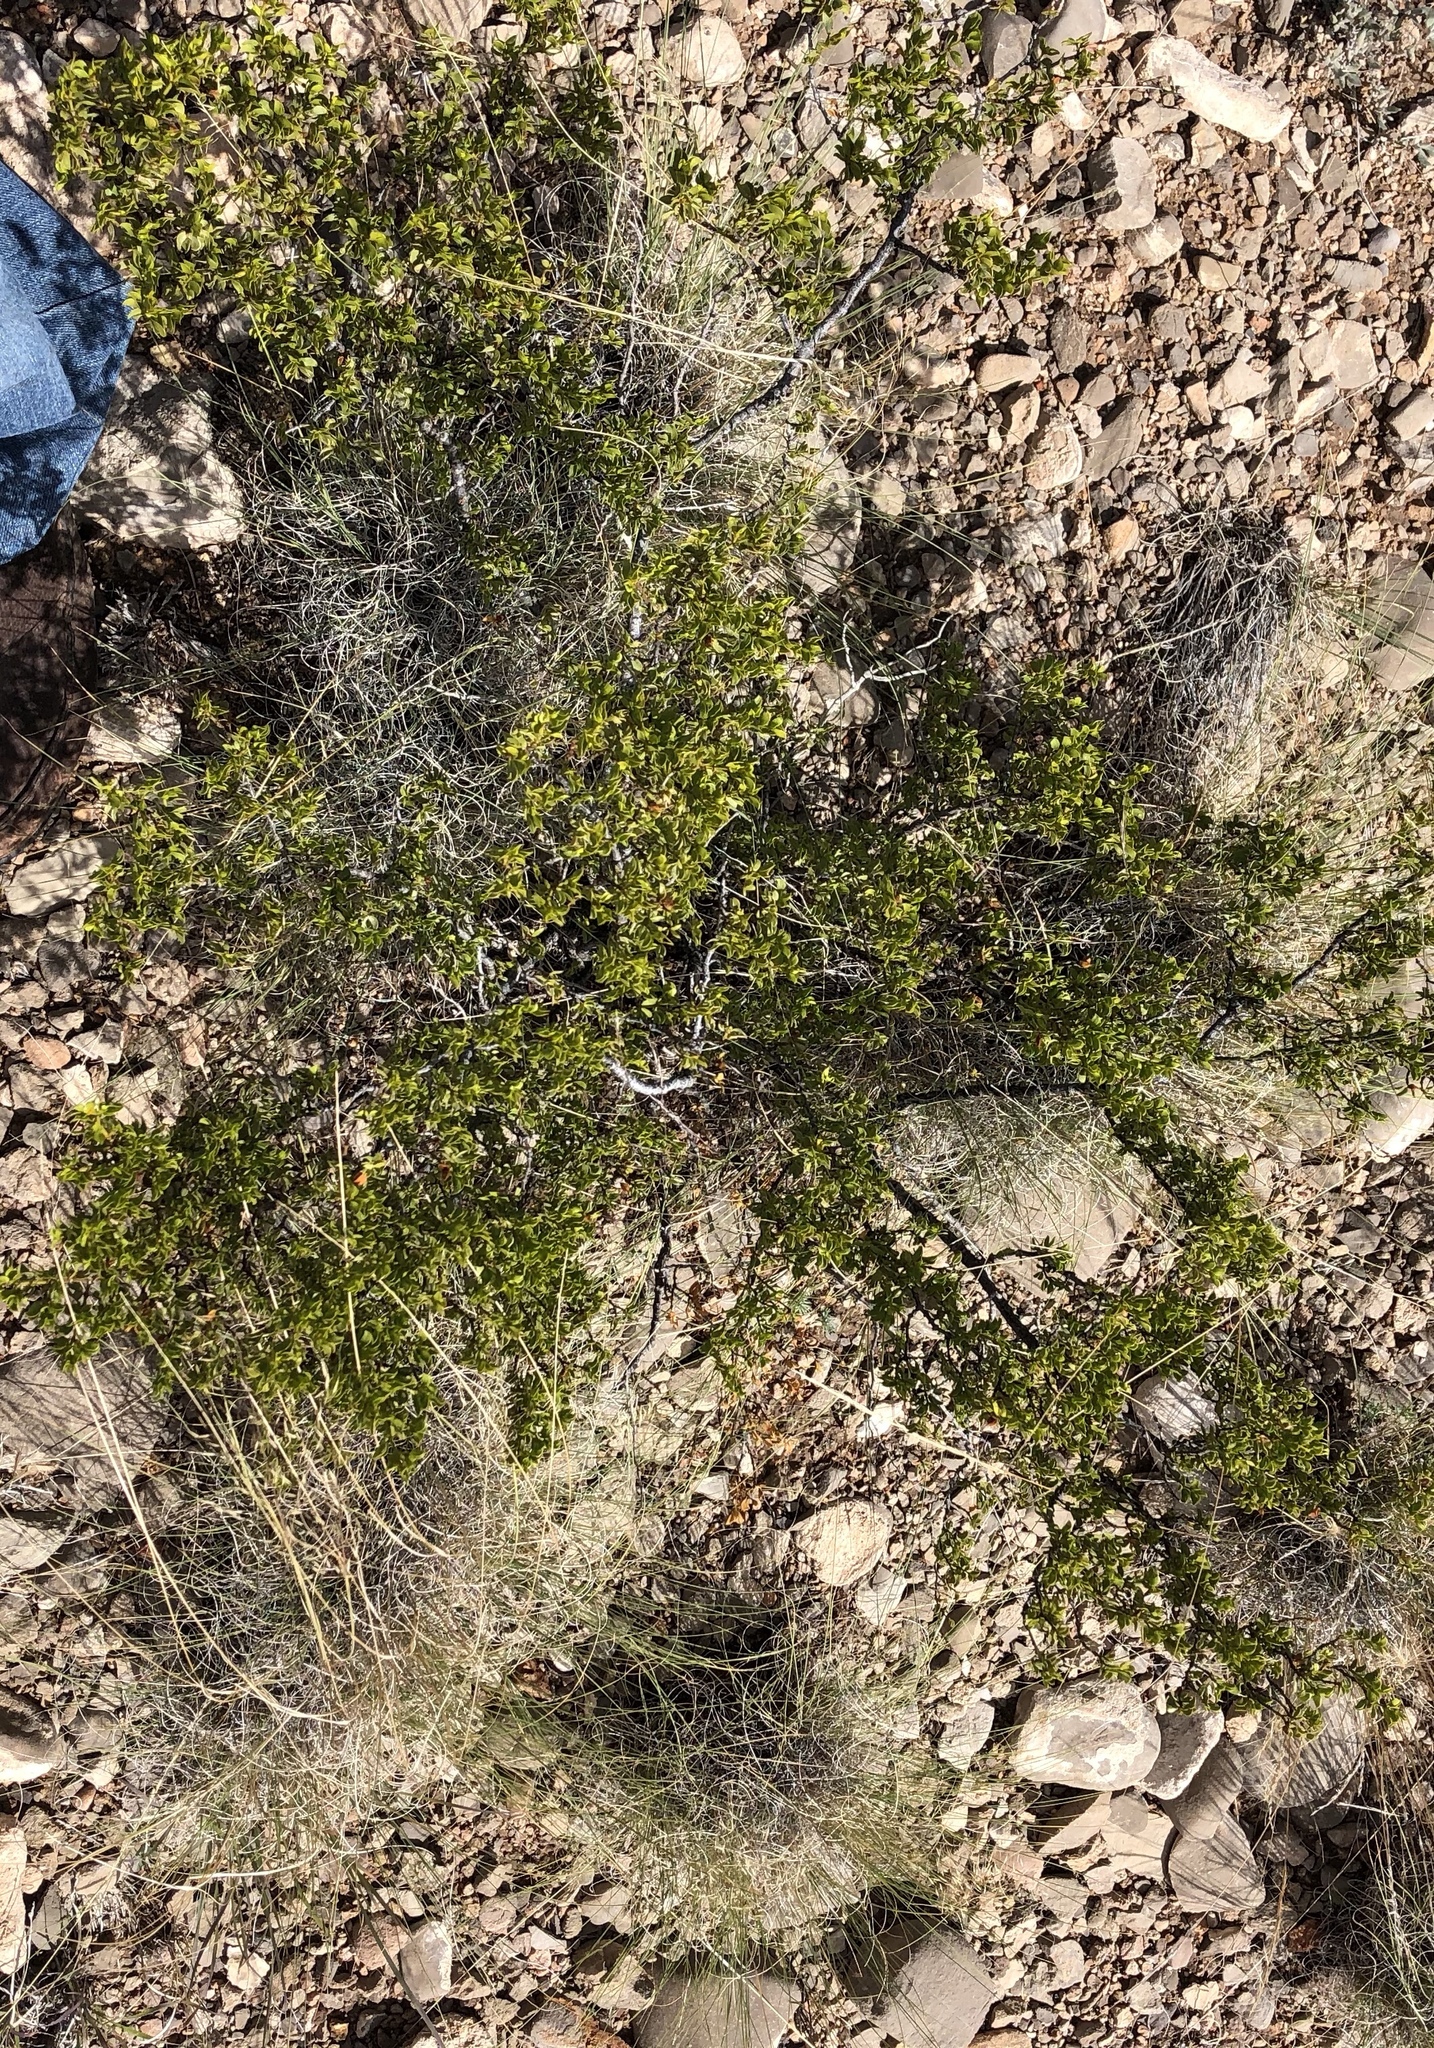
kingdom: Plantae
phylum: Tracheophyta
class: Magnoliopsida
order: Zygophyllales
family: Zygophyllaceae
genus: Larrea
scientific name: Larrea tridentata
